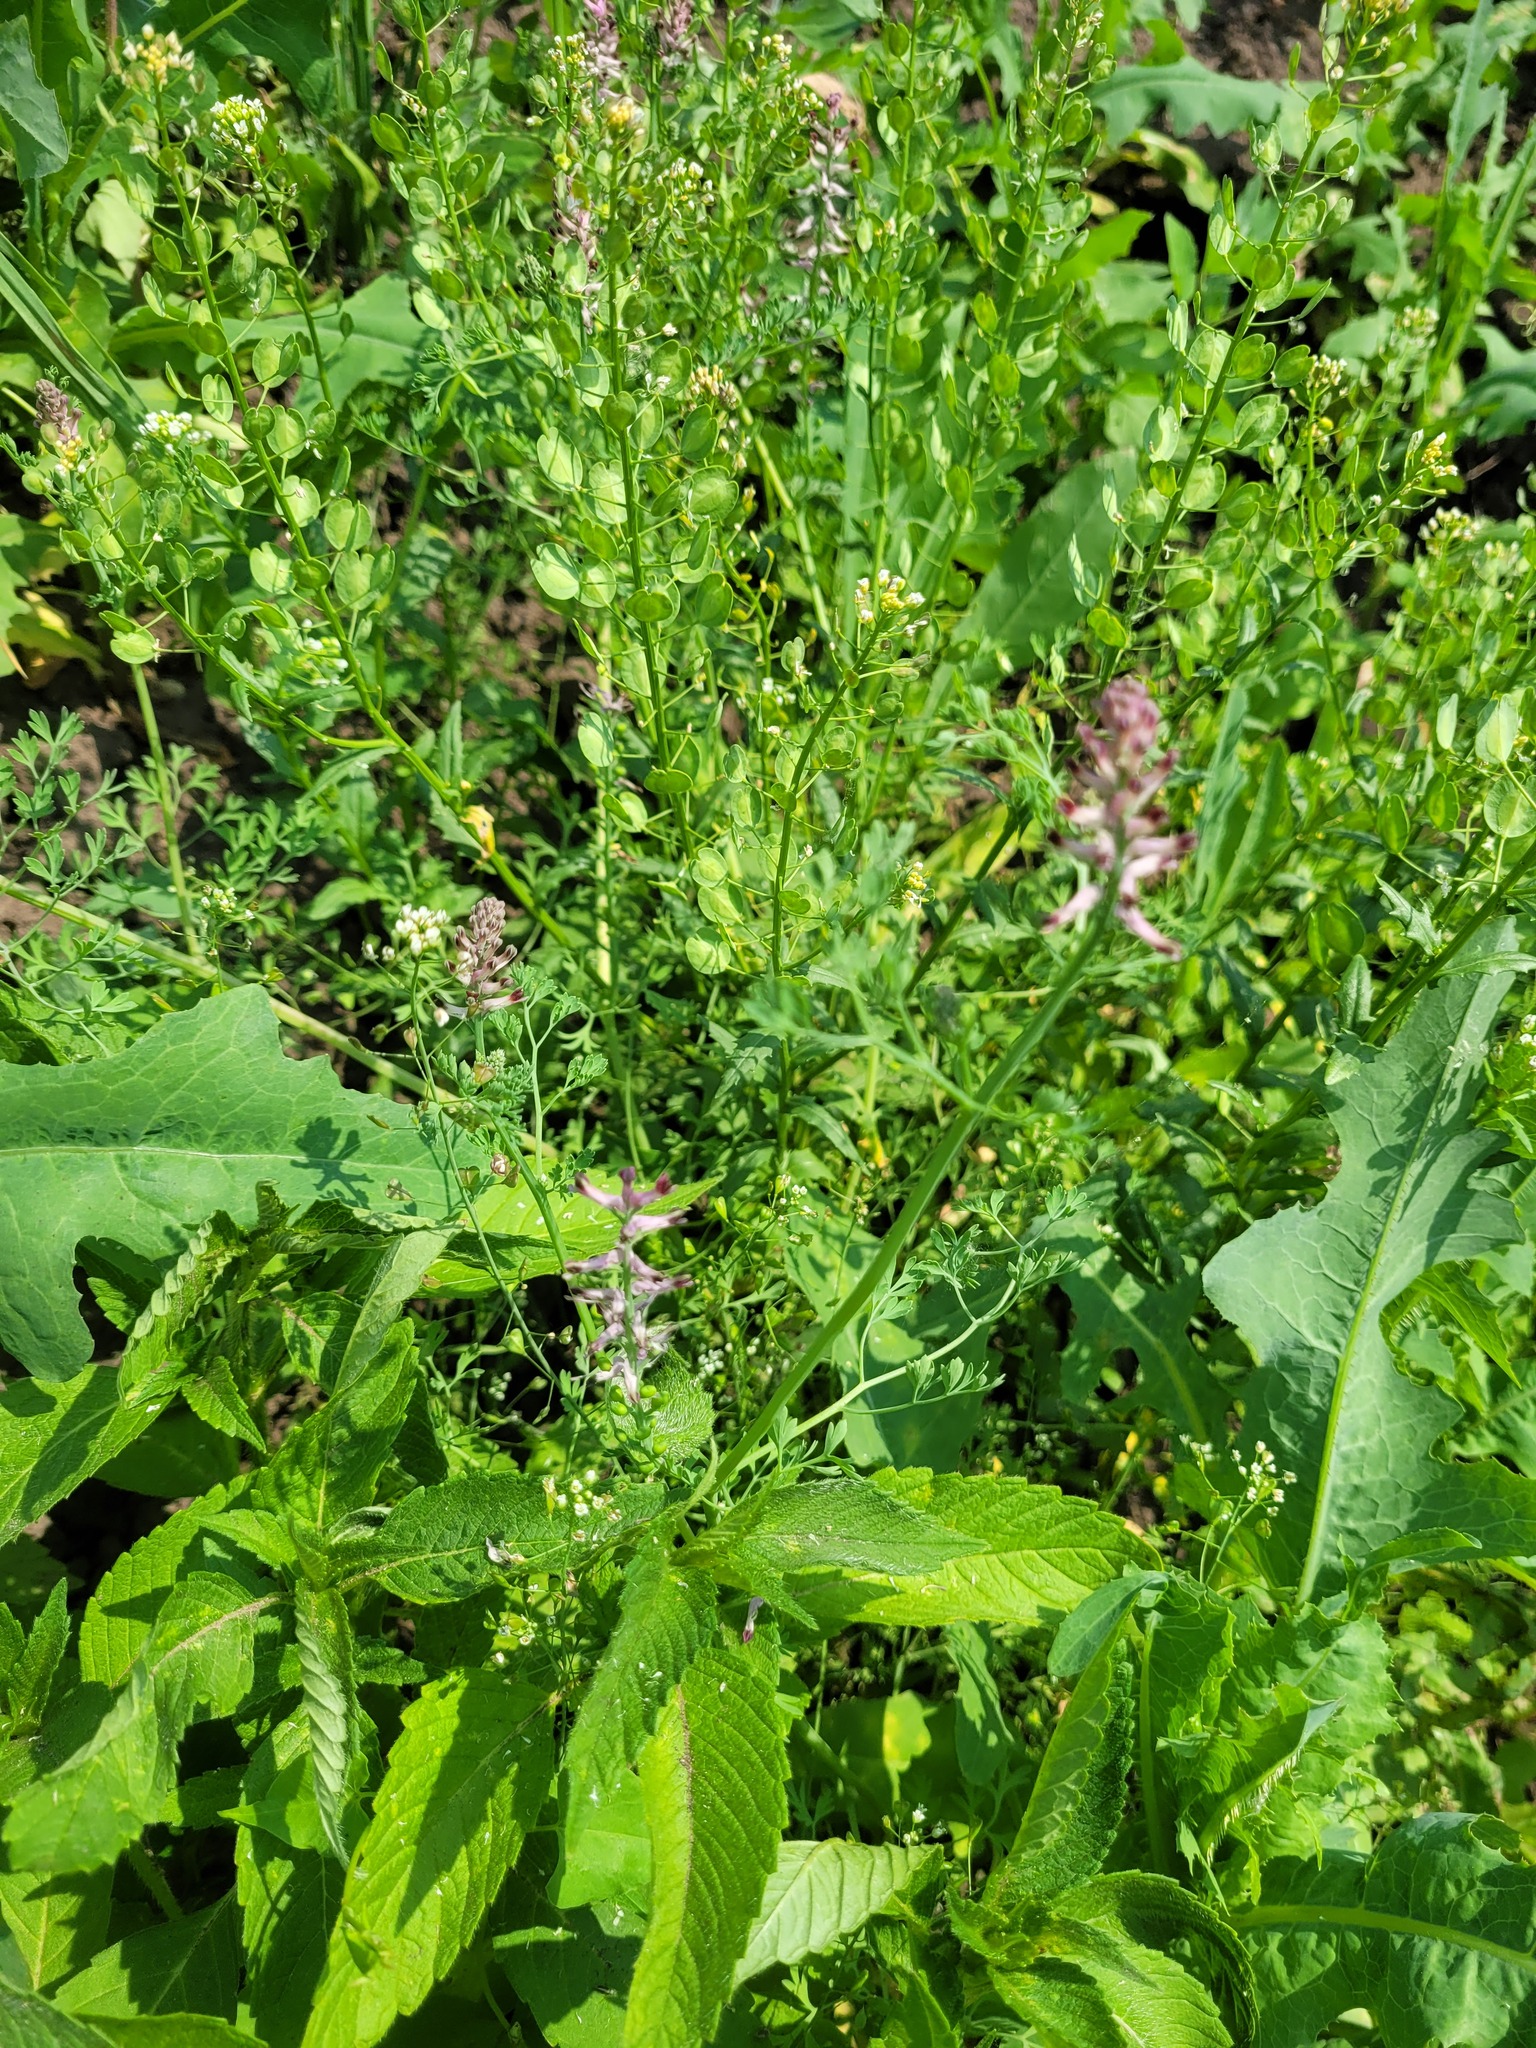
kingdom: Plantae
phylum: Tracheophyta
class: Magnoliopsida
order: Ranunculales
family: Papaveraceae
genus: Fumaria
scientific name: Fumaria officinalis
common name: Common fumitory
